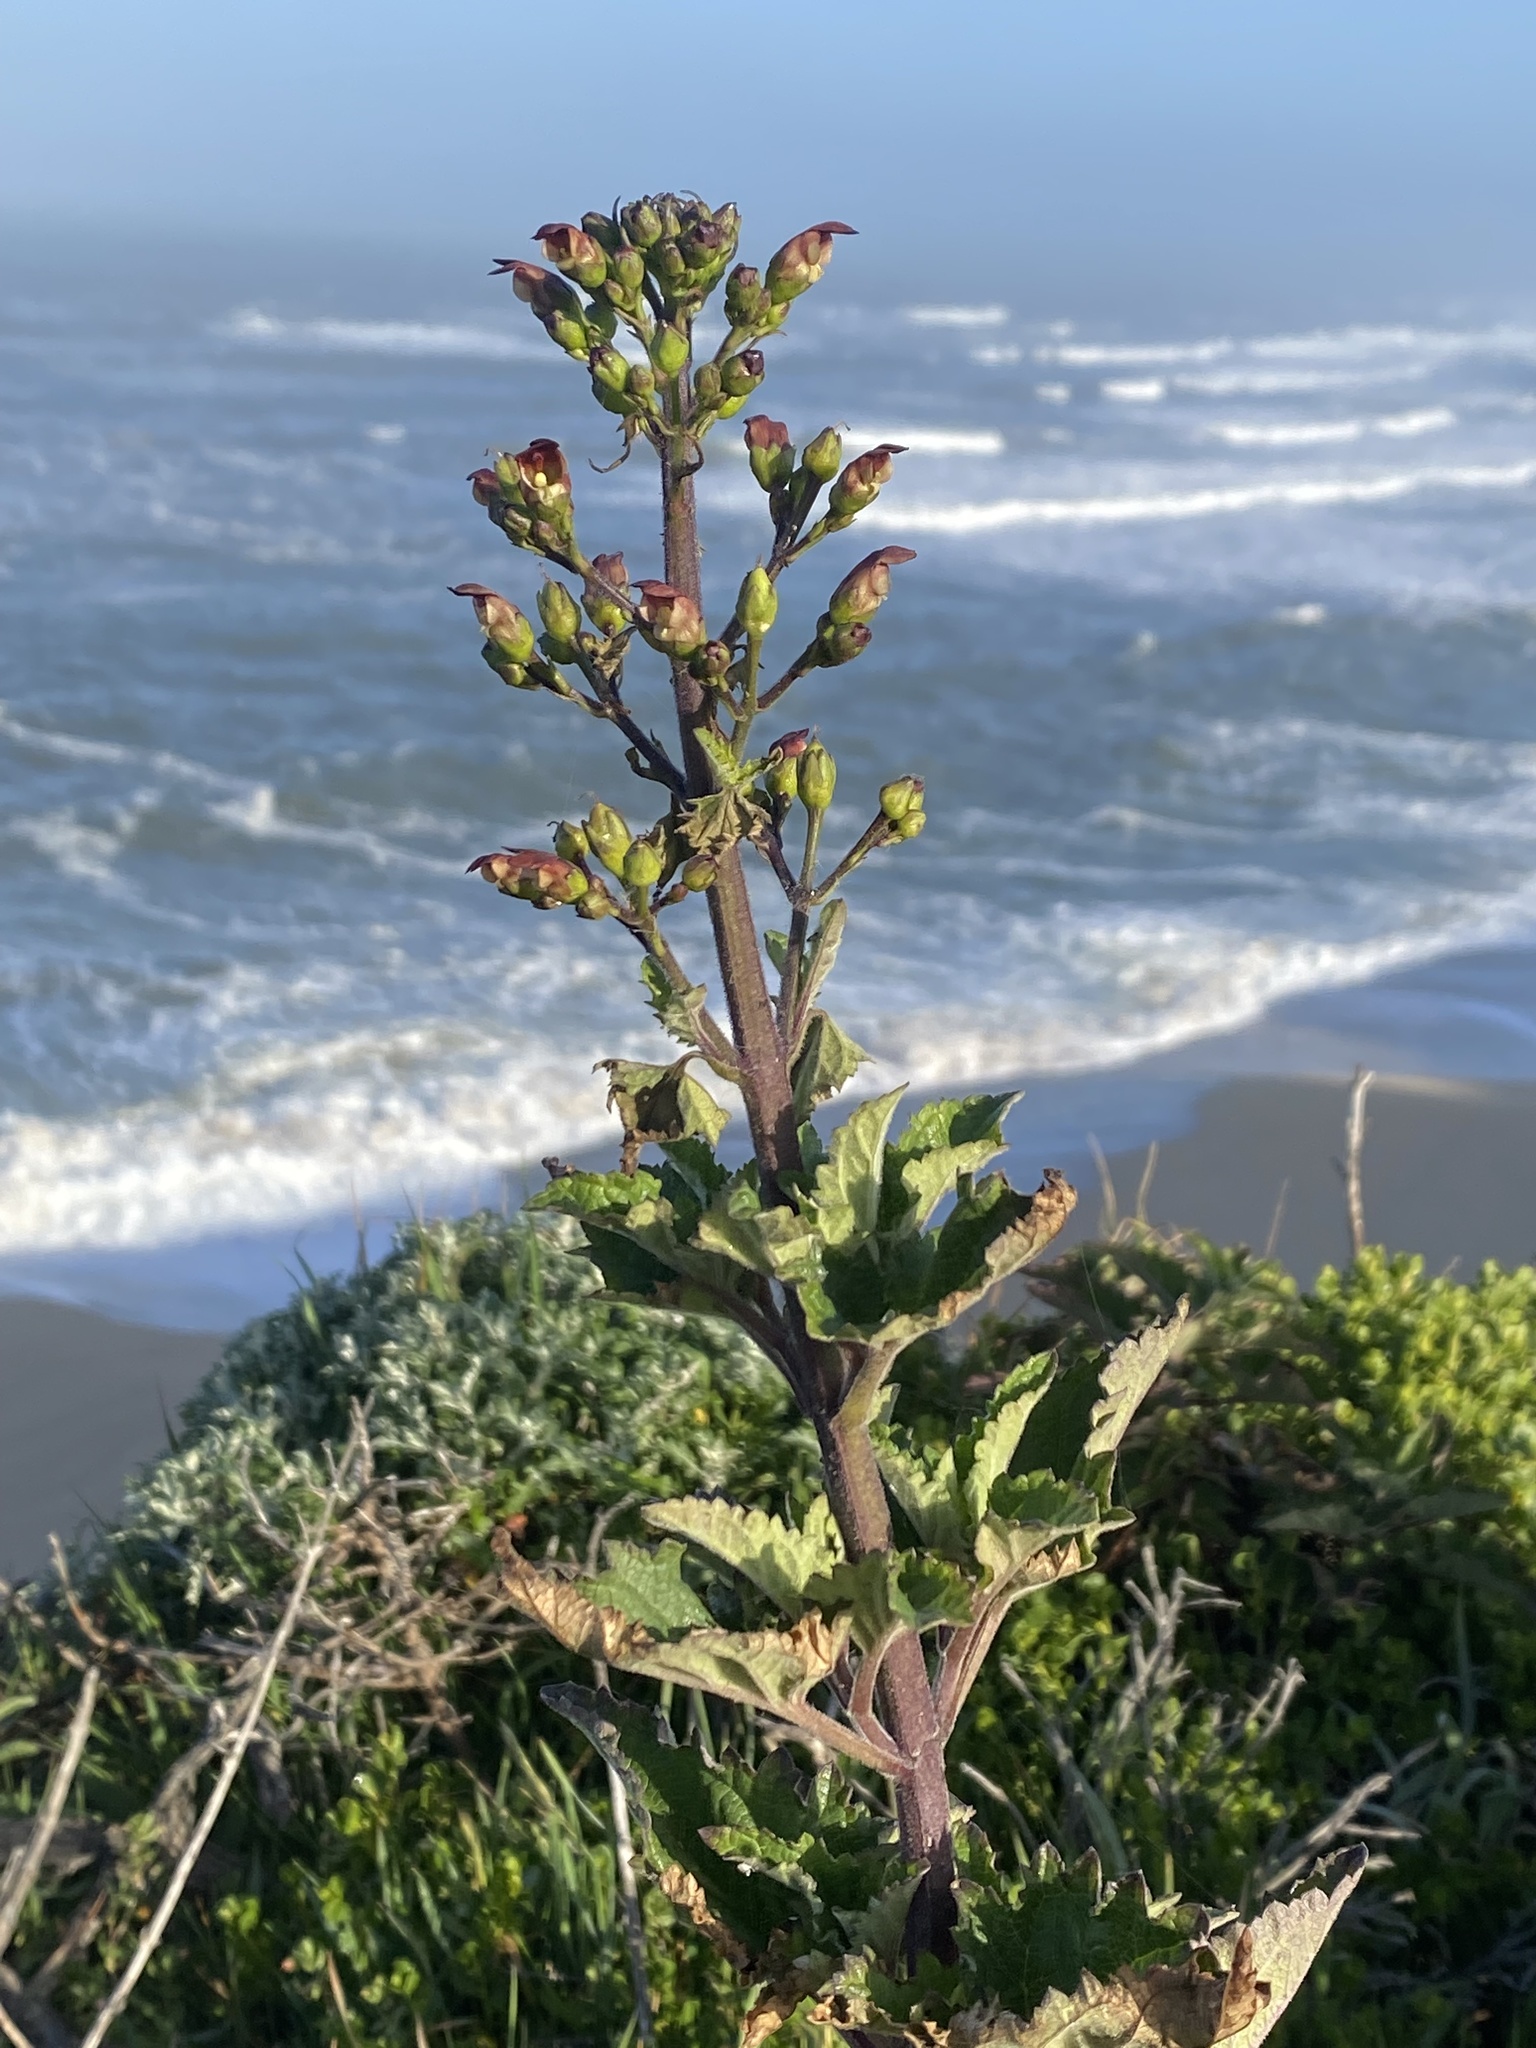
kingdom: Plantae
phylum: Tracheophyta
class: Magnoliopsida
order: Lamiales
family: Scrophulariaceae
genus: Scrophularia
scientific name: Scrophularia californica
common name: California figwort
